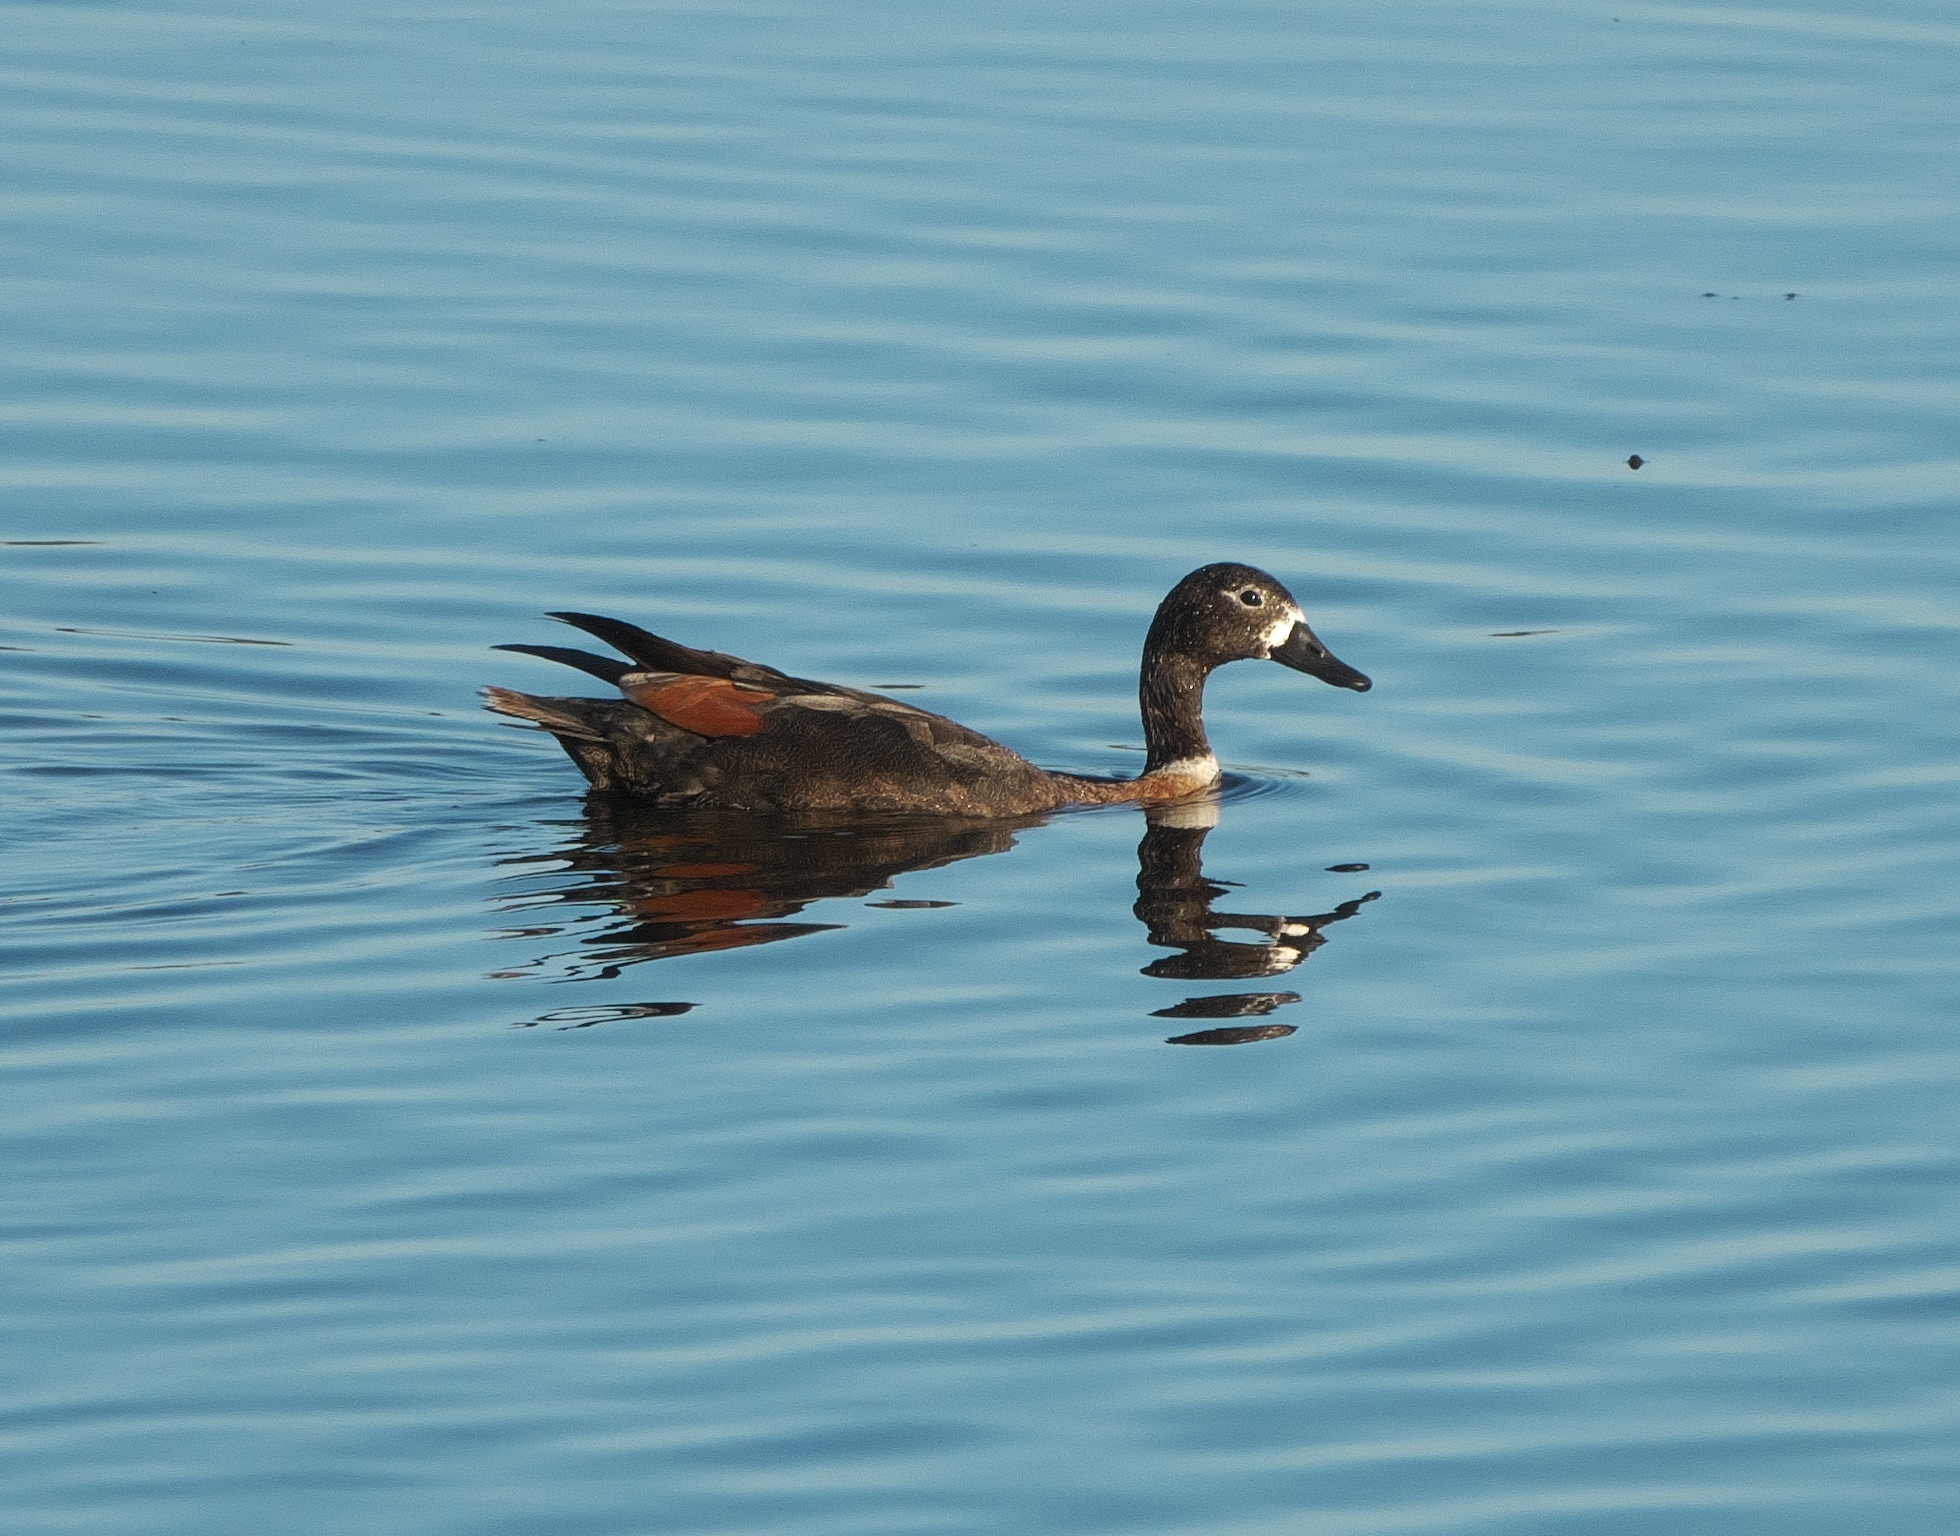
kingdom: Animalia
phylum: Chordata
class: Aves
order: Anseriformes
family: Anatidae
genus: Tadorna
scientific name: Tadorna tadornoides
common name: Australian shelduck
